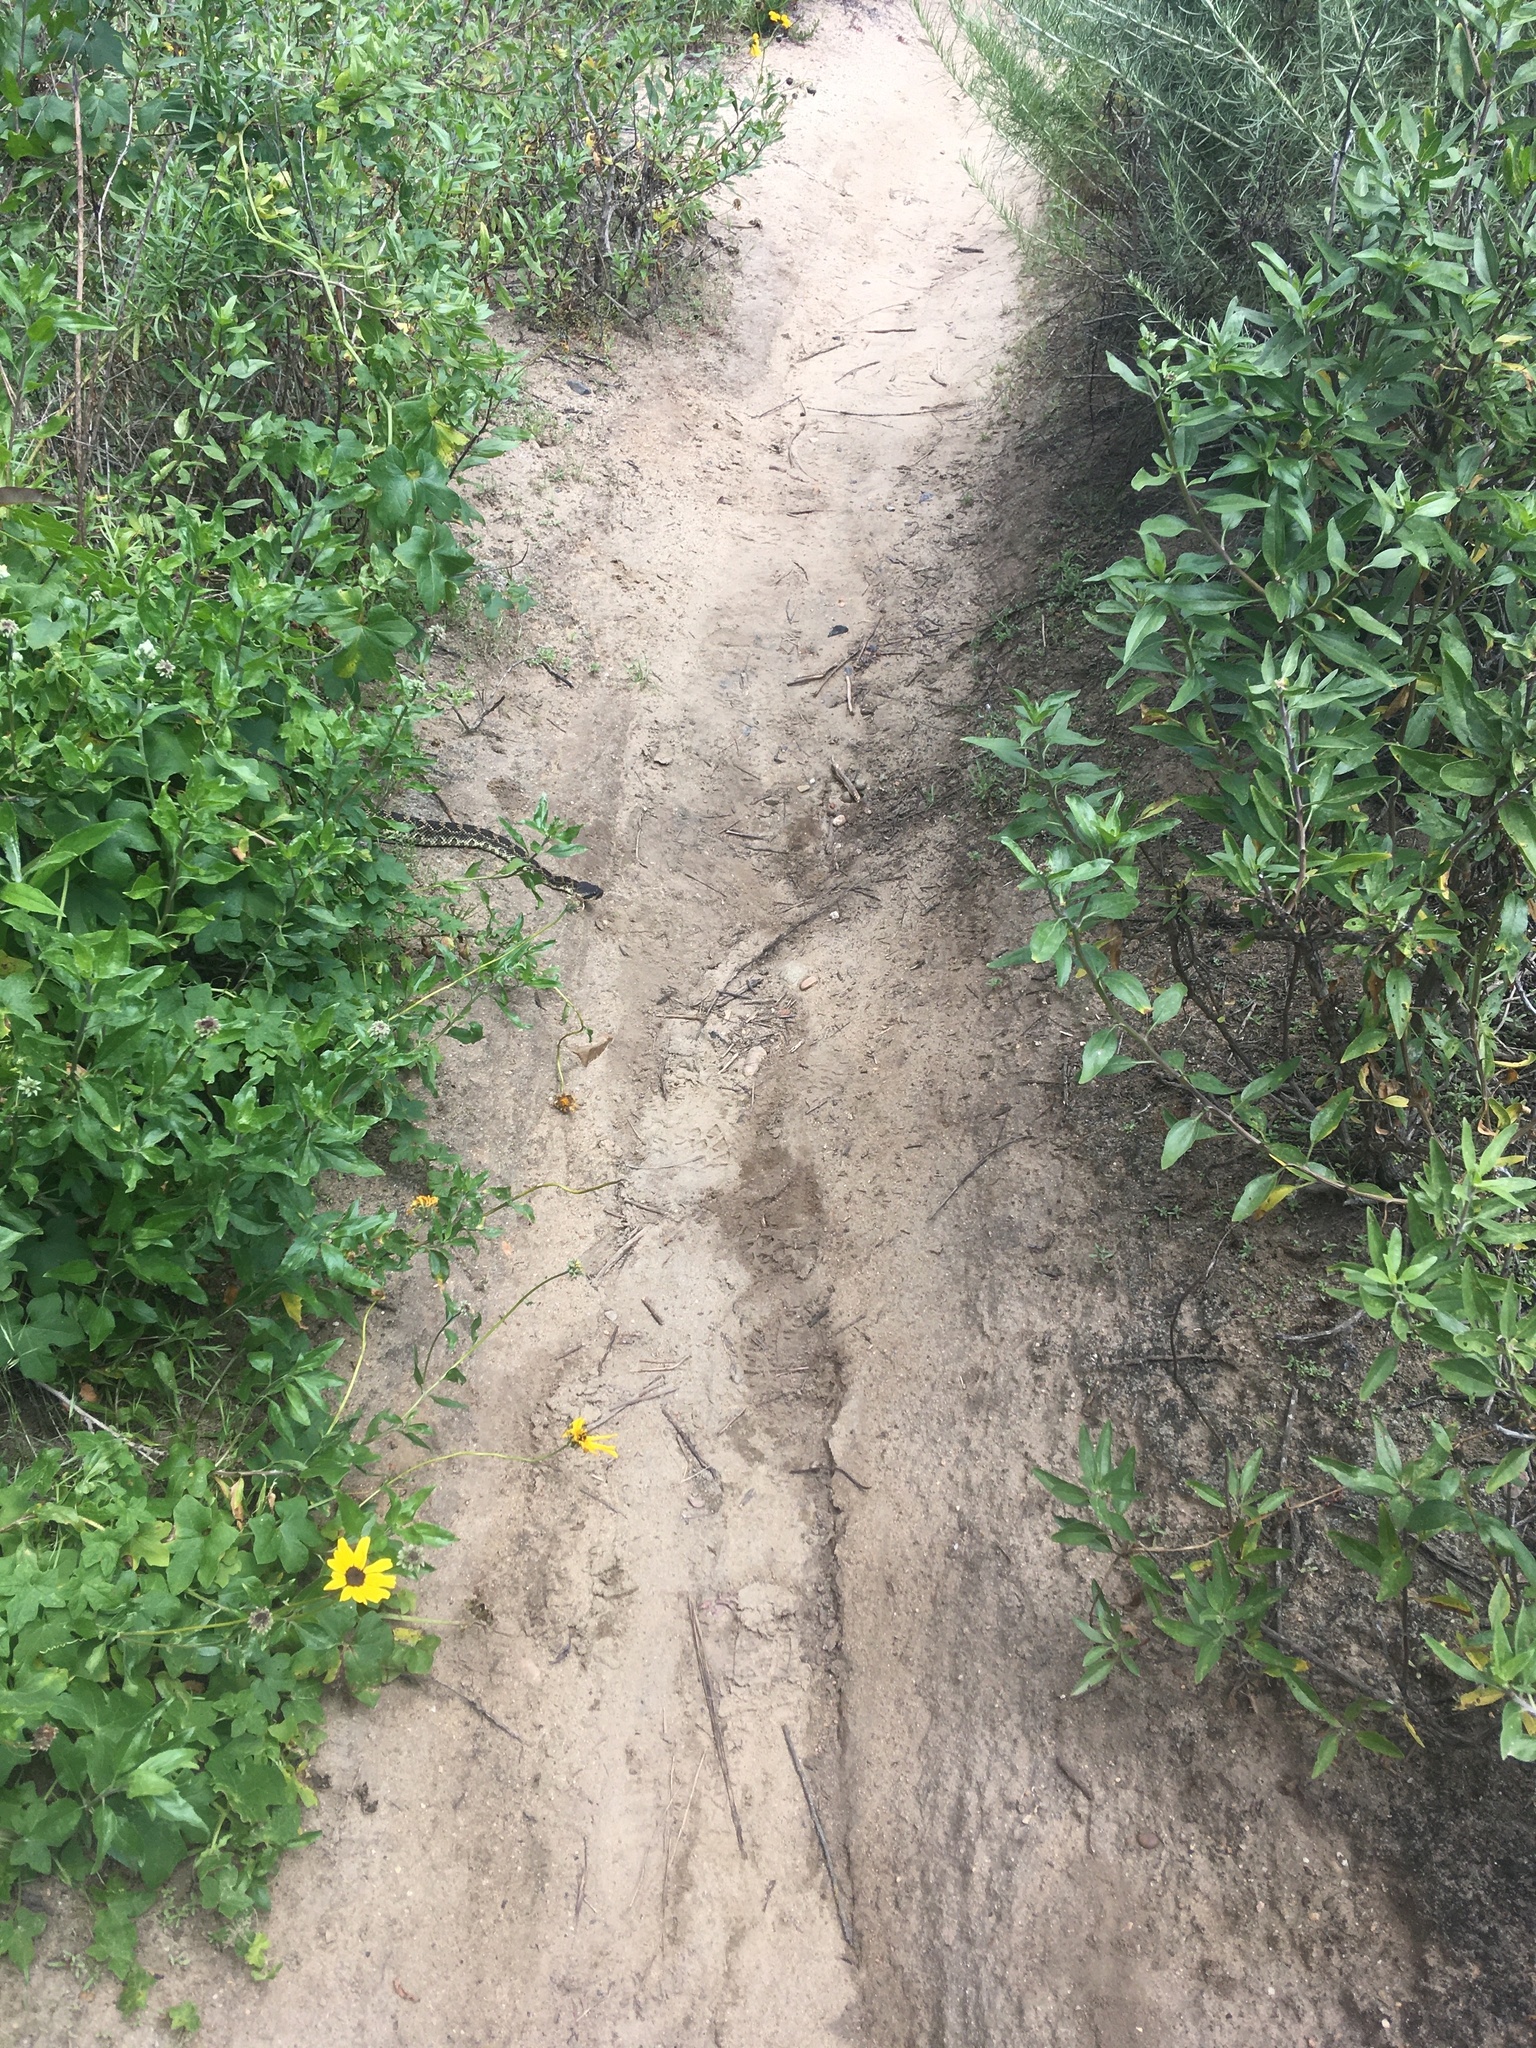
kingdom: Animalia
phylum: Chordata
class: Squamata
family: Viperidae
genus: Crotalus
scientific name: Crotalus oreganus
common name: Abyssus
